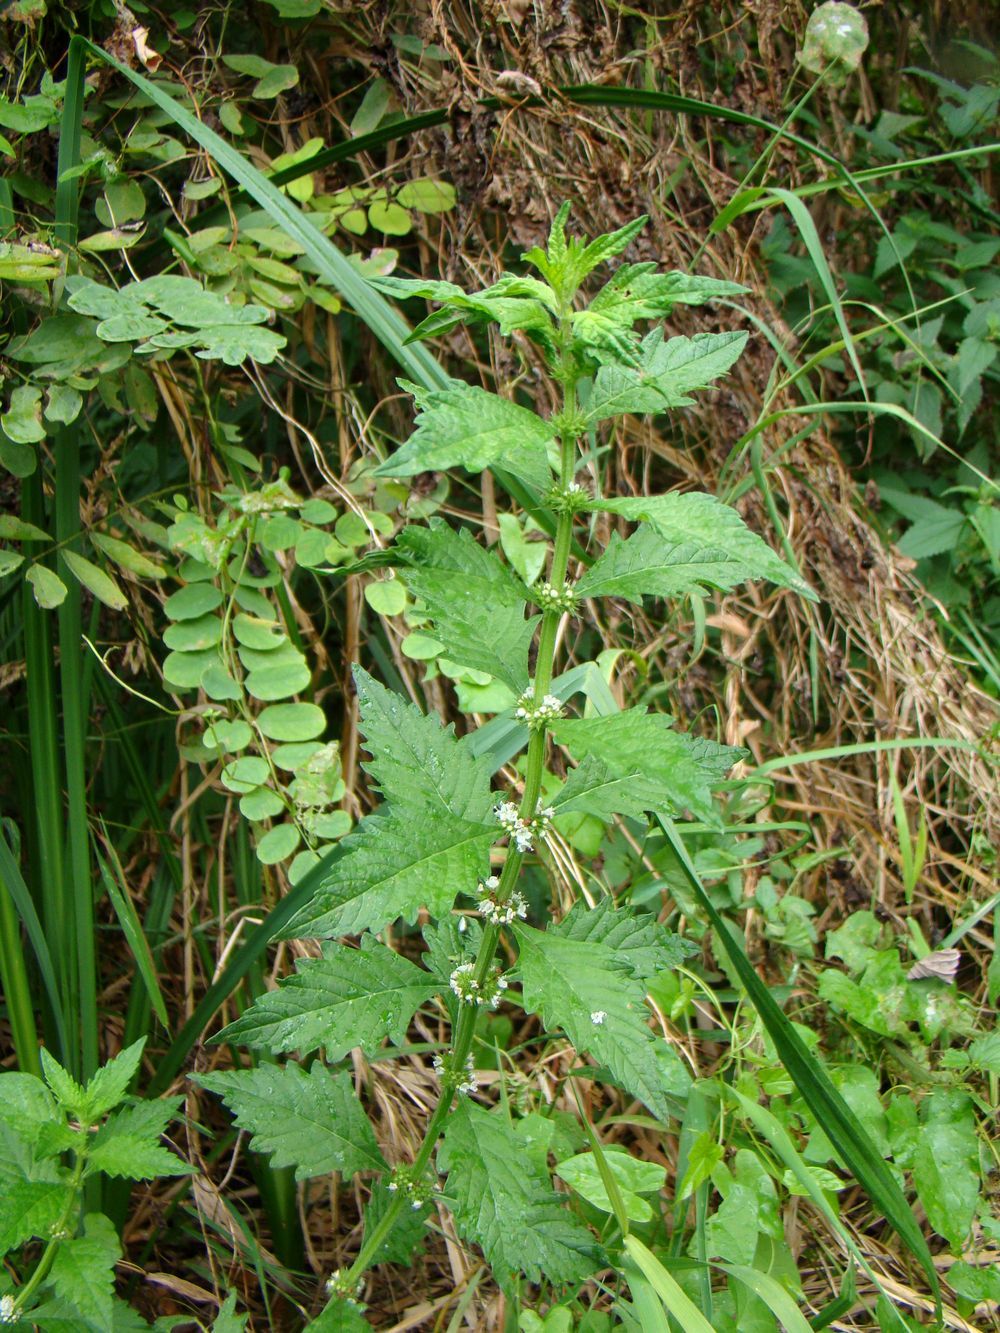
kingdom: Plantae
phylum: Tracheophyta
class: Magnoliopsida
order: Lamiales
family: Lamiaceae
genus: Lycopus
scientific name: Lycopus europaeus
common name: European bugleweed
